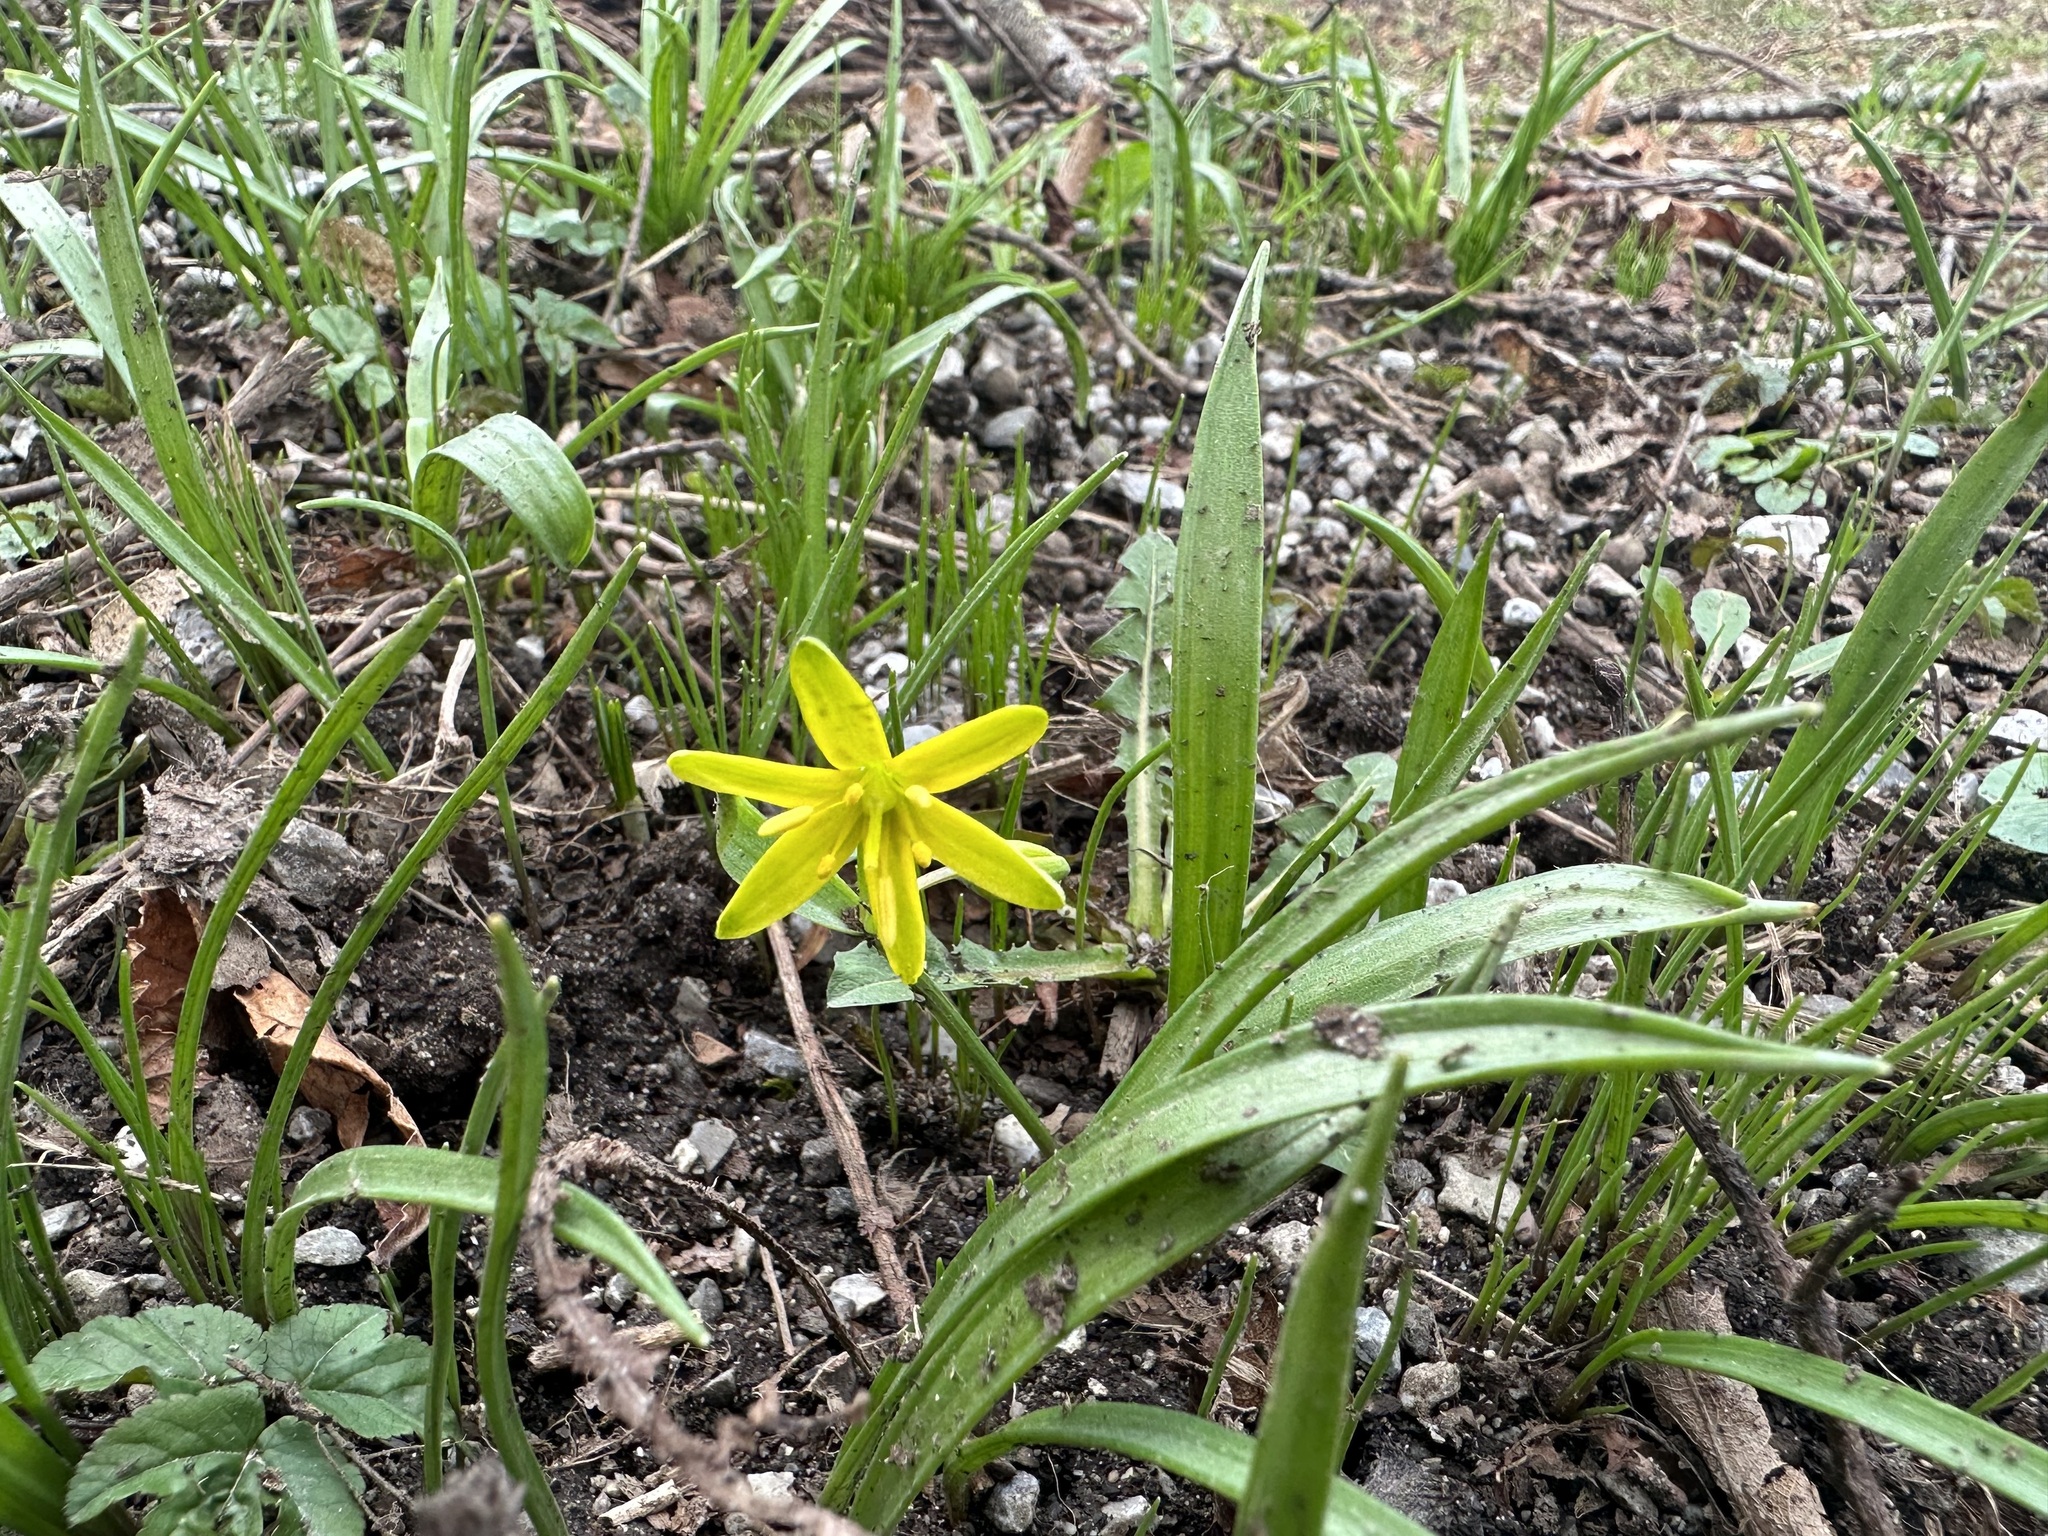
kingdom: Plantae
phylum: Tracheophyta
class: Liliopsida
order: Liliales
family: Liliaceae
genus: Gagea
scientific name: Gagea lutea
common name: Yellow star-of-bethlehem
